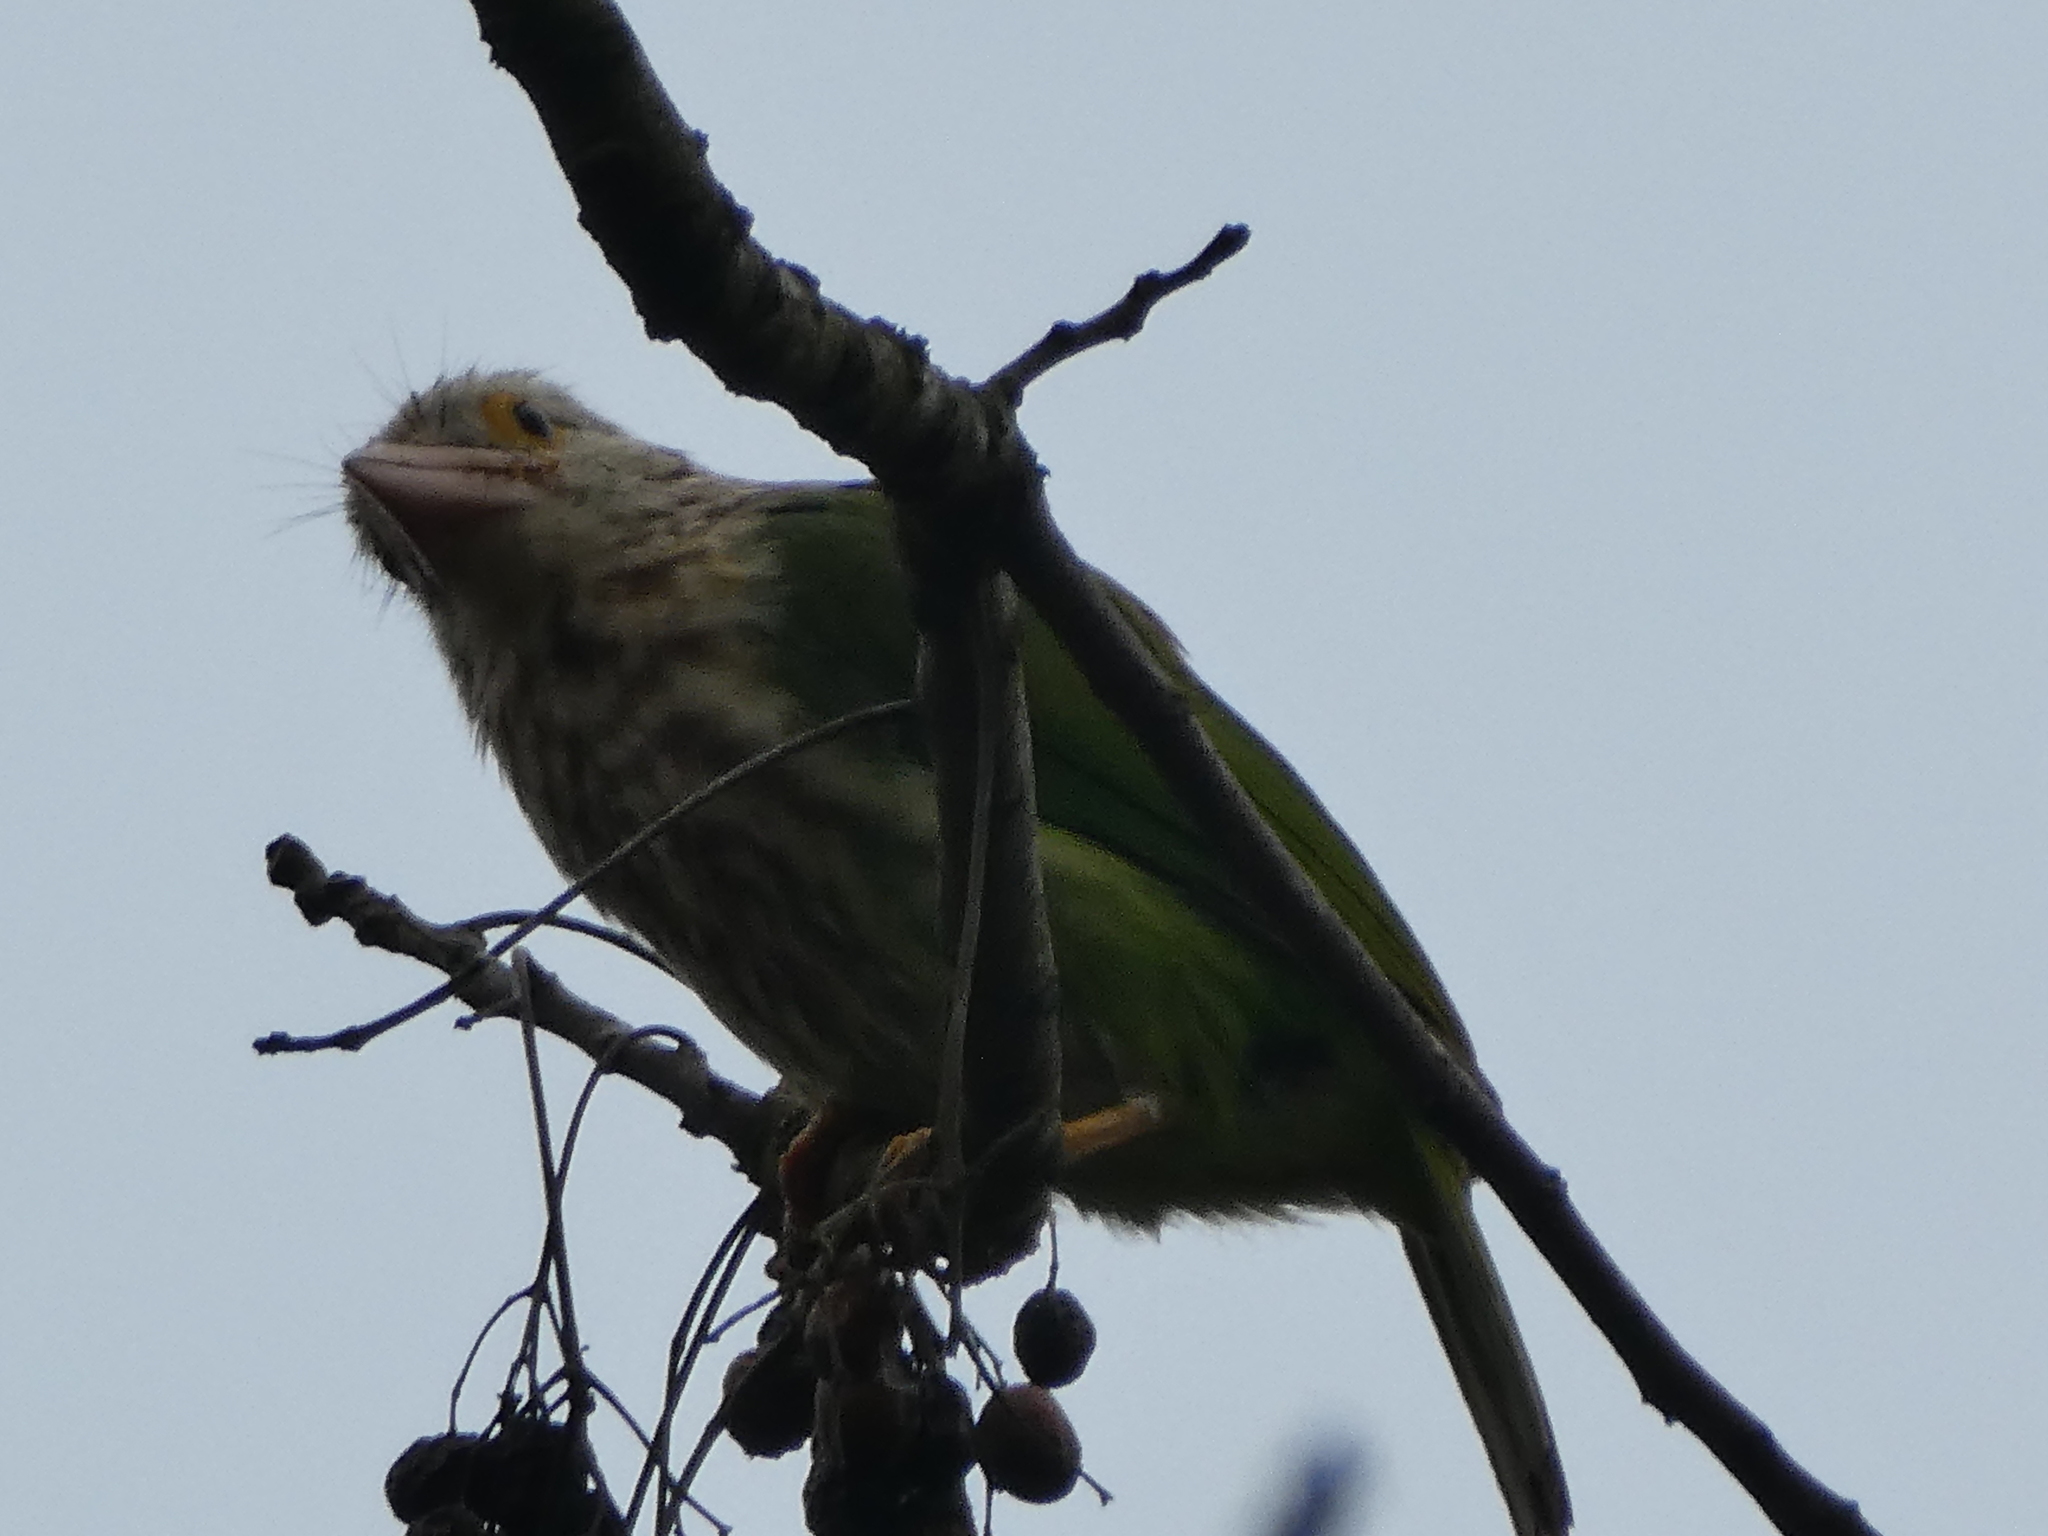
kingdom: Animalia
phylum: Chordata
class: Aves
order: Piciformes
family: Megalaimidae
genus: Psilopogon
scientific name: Psilopogon lineatus
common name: Lineated barbet
